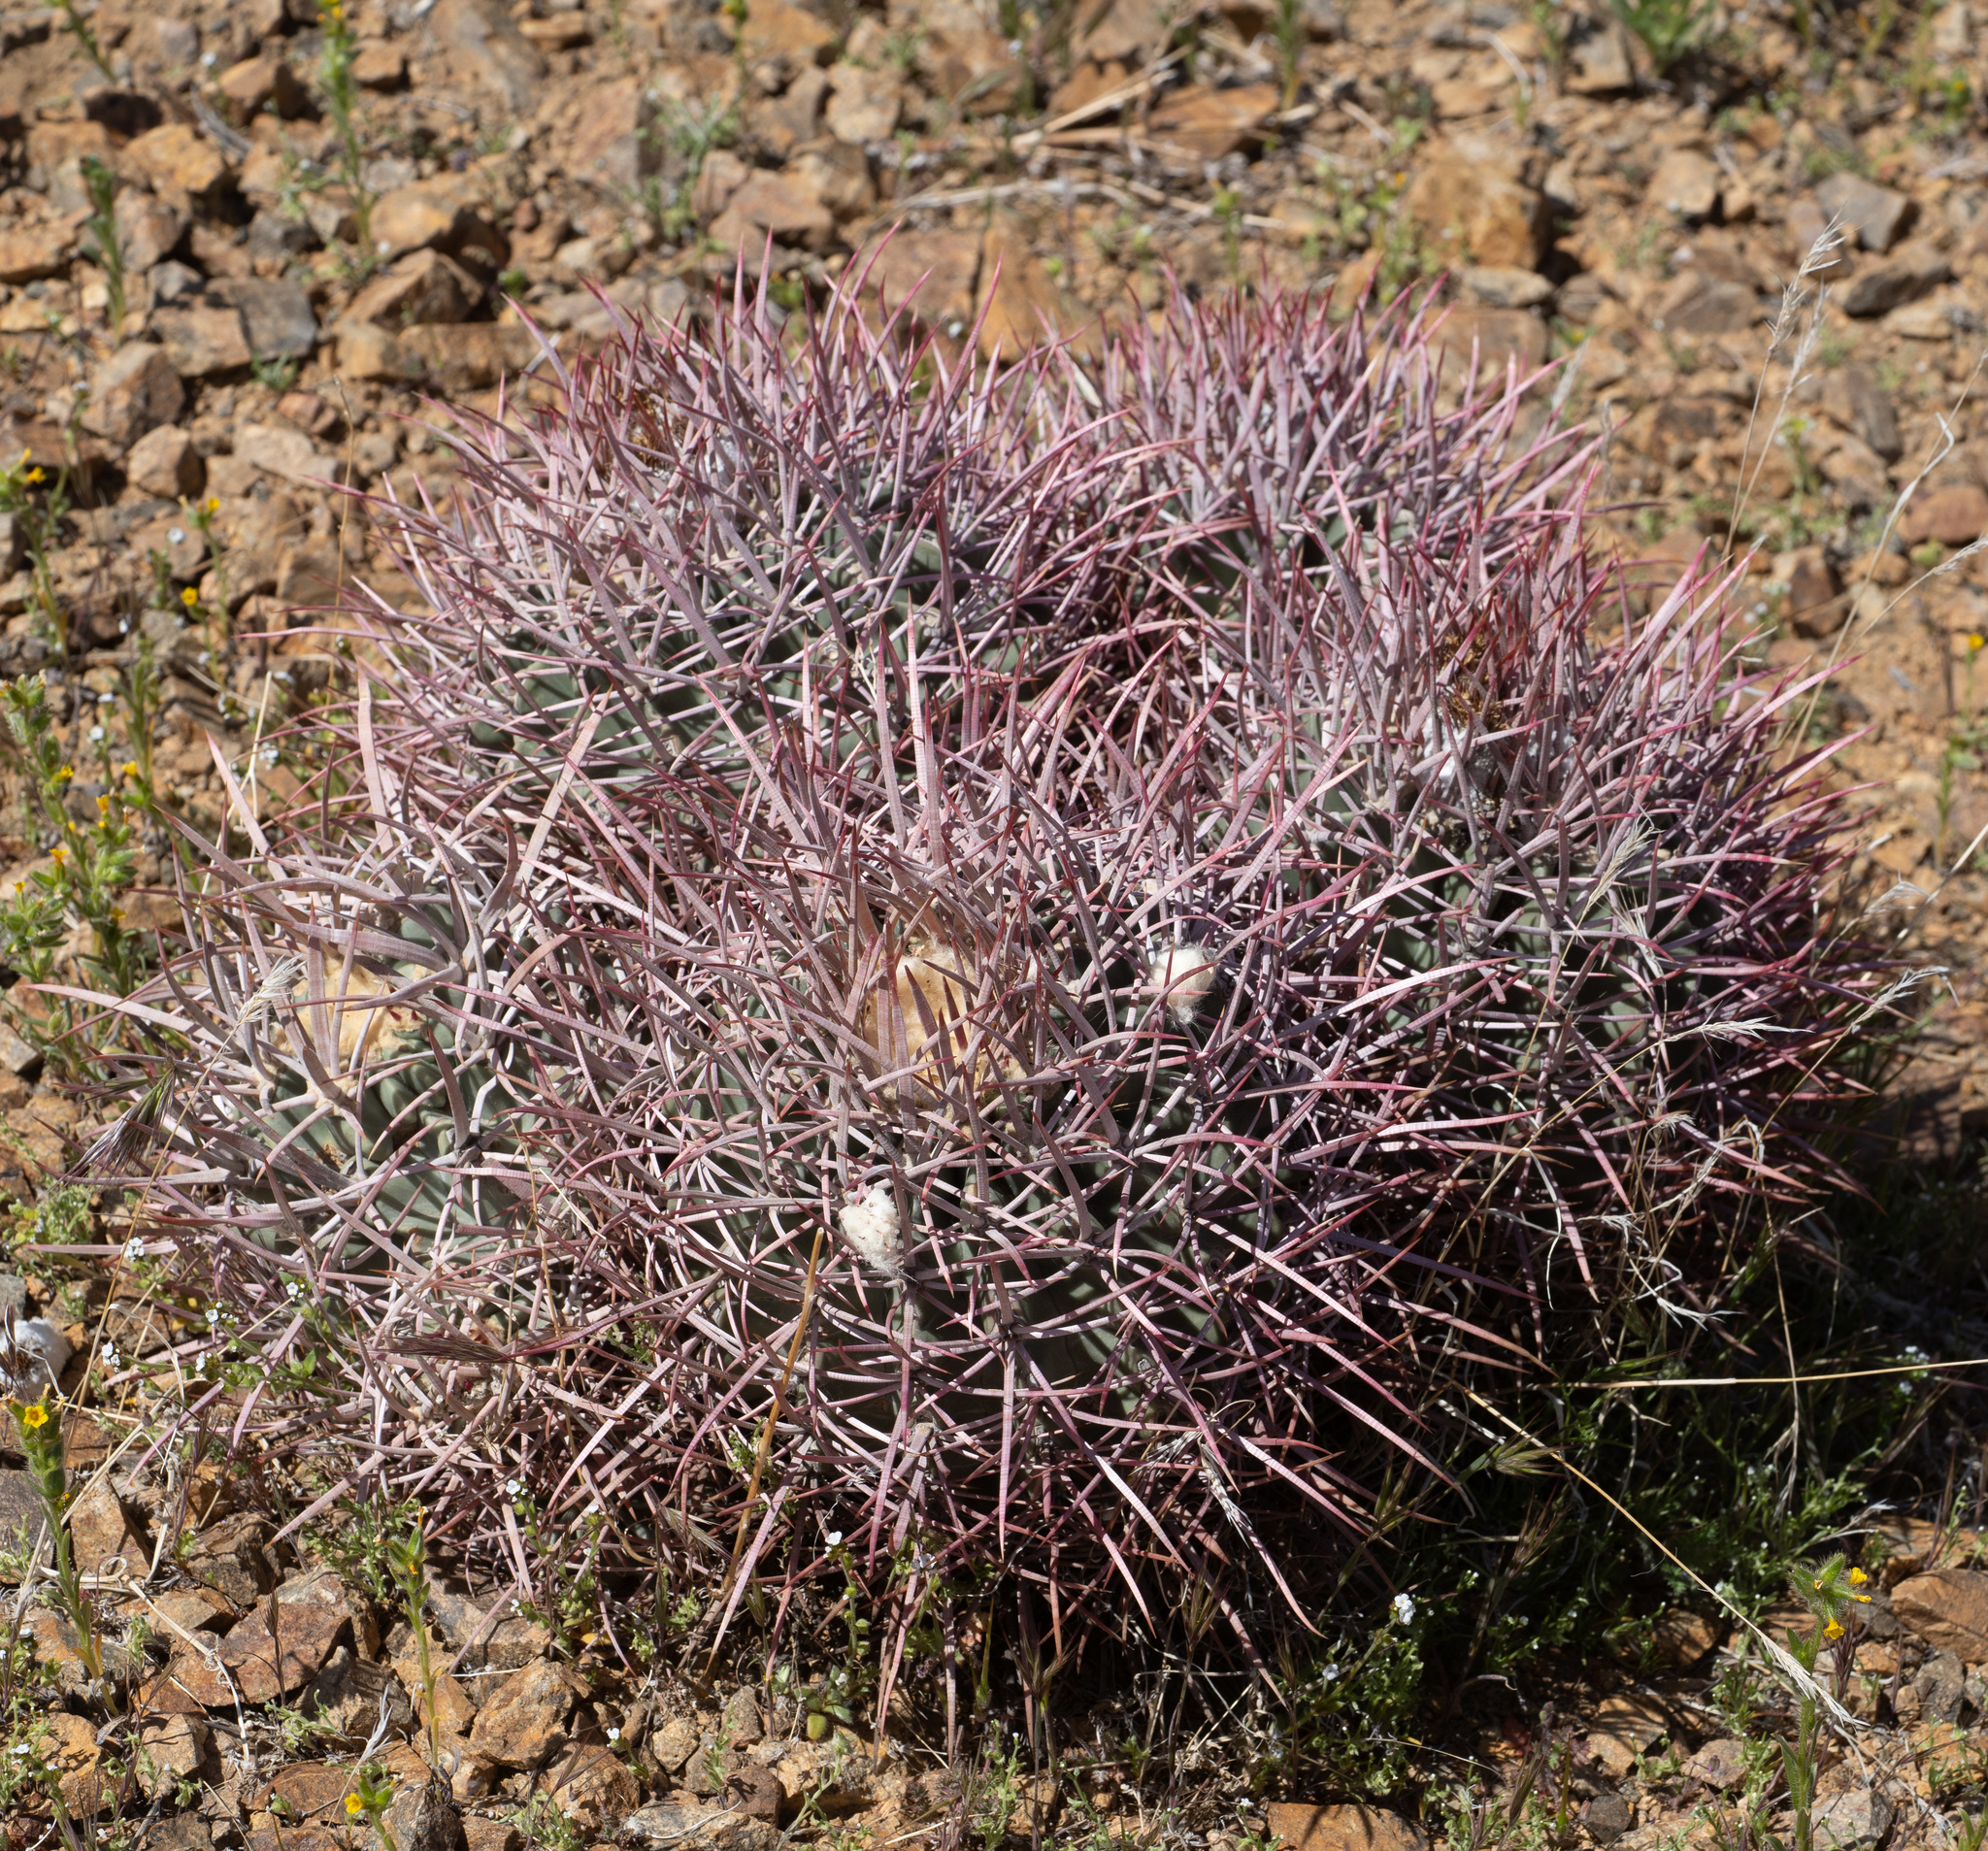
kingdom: Plantae
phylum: Tracheophyta
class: Magnoliopsida
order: Caryophyllales
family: Cactaceae
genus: Echinocactus
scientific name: Echinocactus polycephalus
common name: Cottontop cactus
